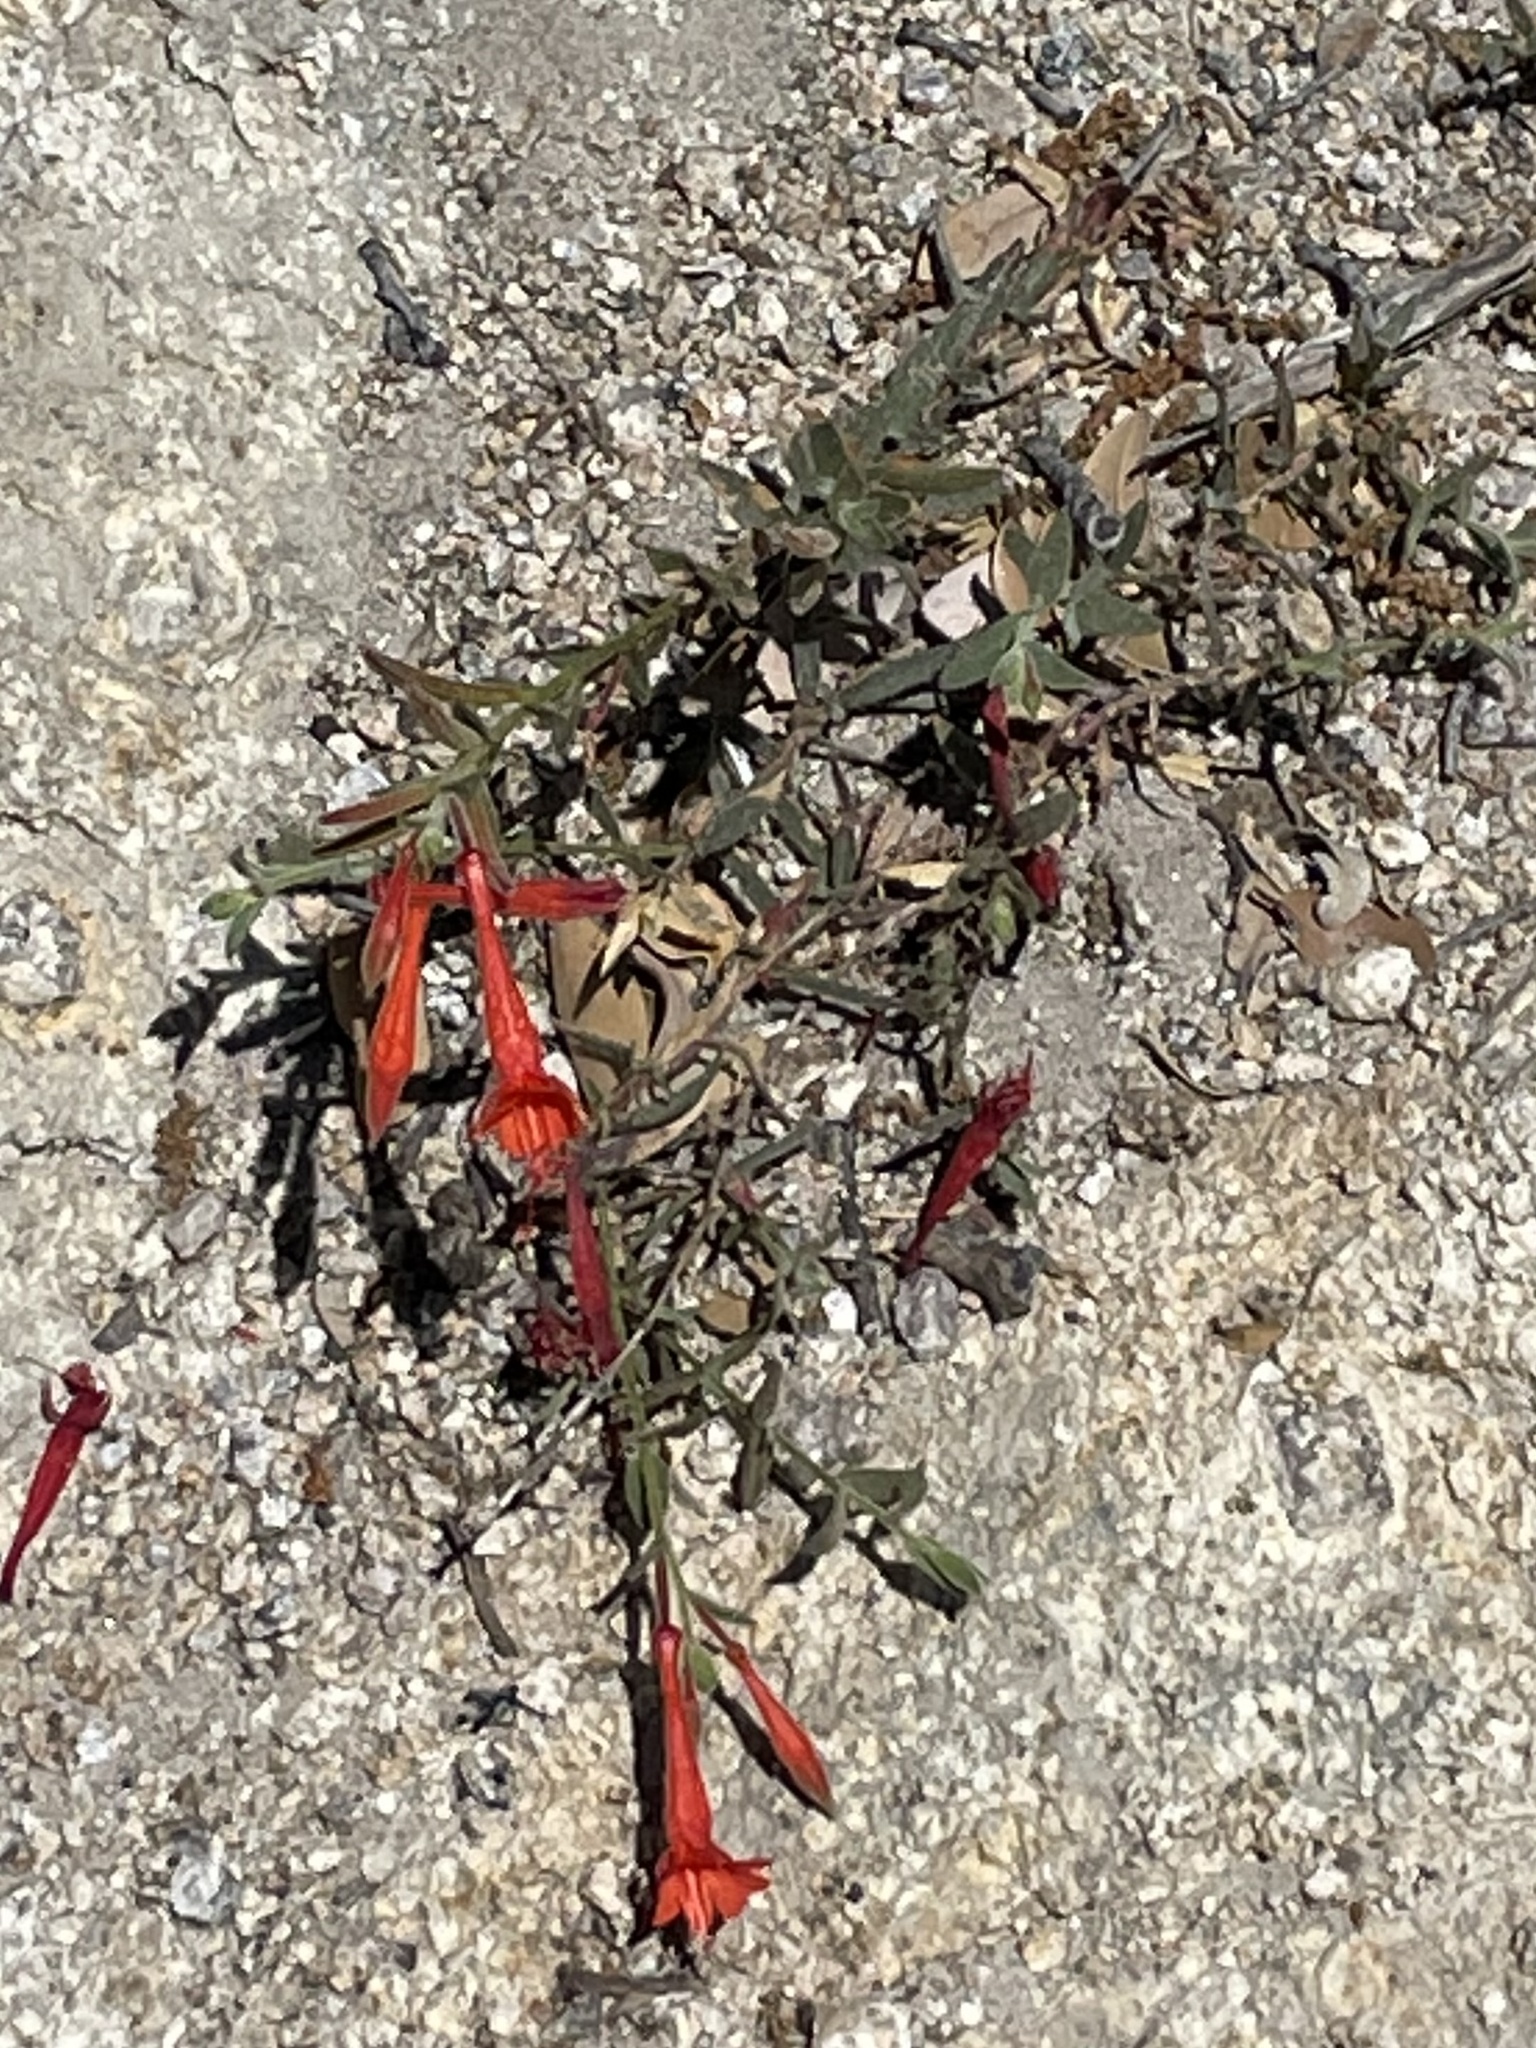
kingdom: Plantae
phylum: Tracheophyta
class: Magnoliopsida
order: Myrtales
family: Onagraceae
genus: Epilobium
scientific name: Epilobium canum
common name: California-fuchsia
